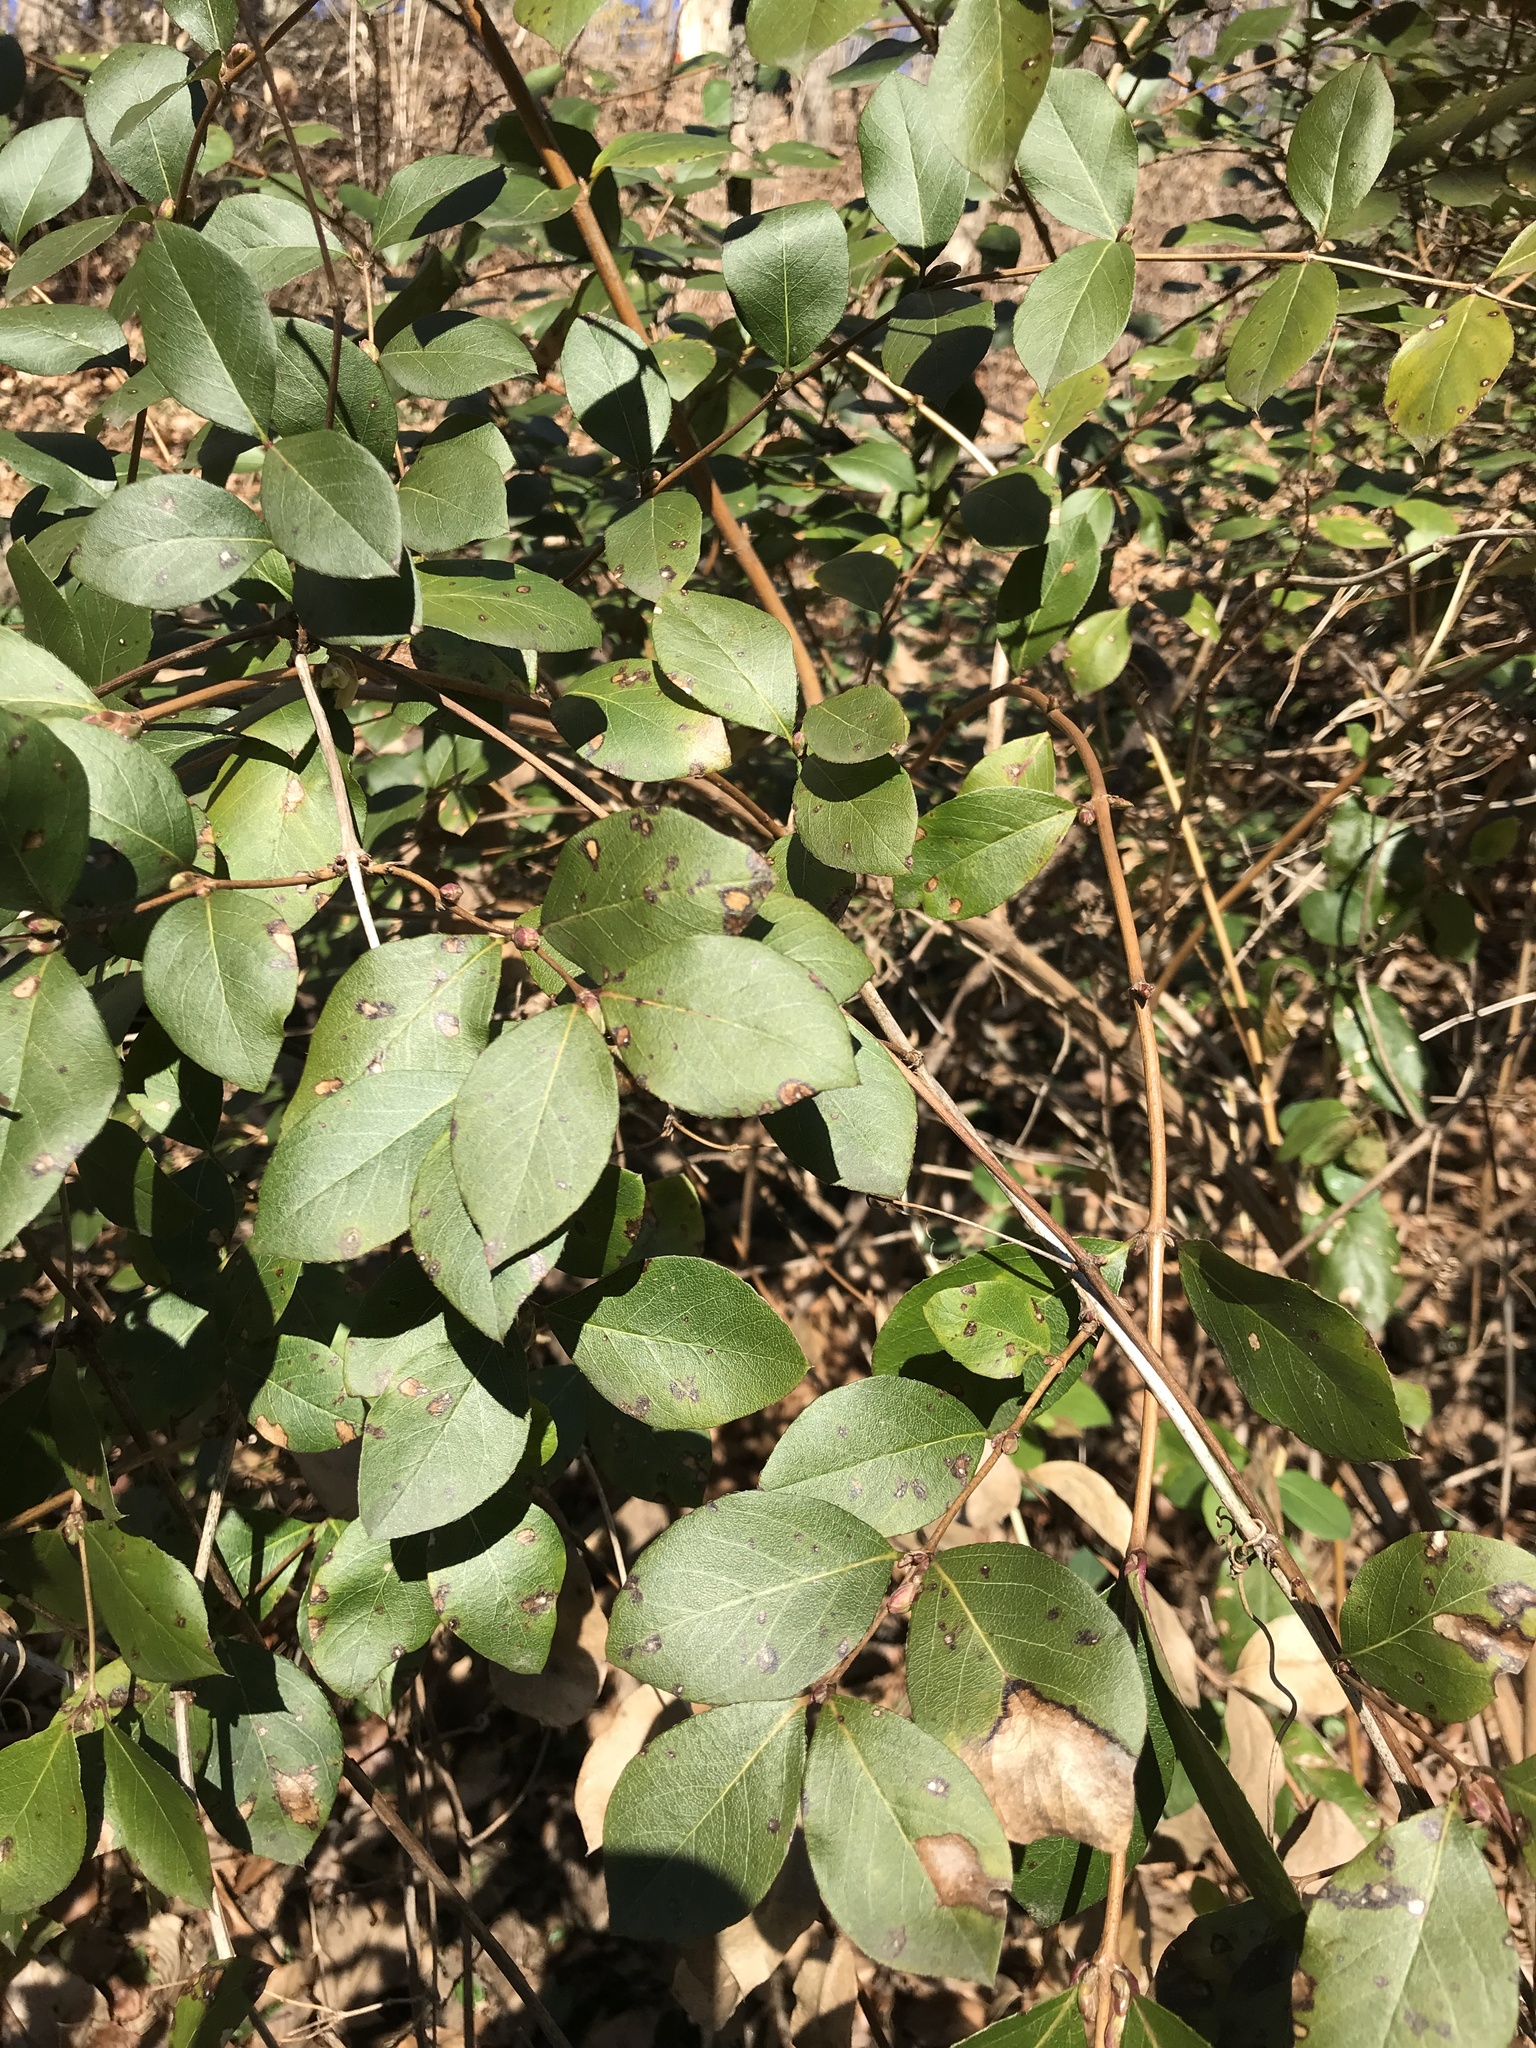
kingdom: Plantae
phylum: Tracheophyta
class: Magnoliopsida
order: Dipsacales
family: Caprifoliaceae
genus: Lonicera
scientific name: Lonicera fragrantissima
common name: Fragrant honeysuckle
